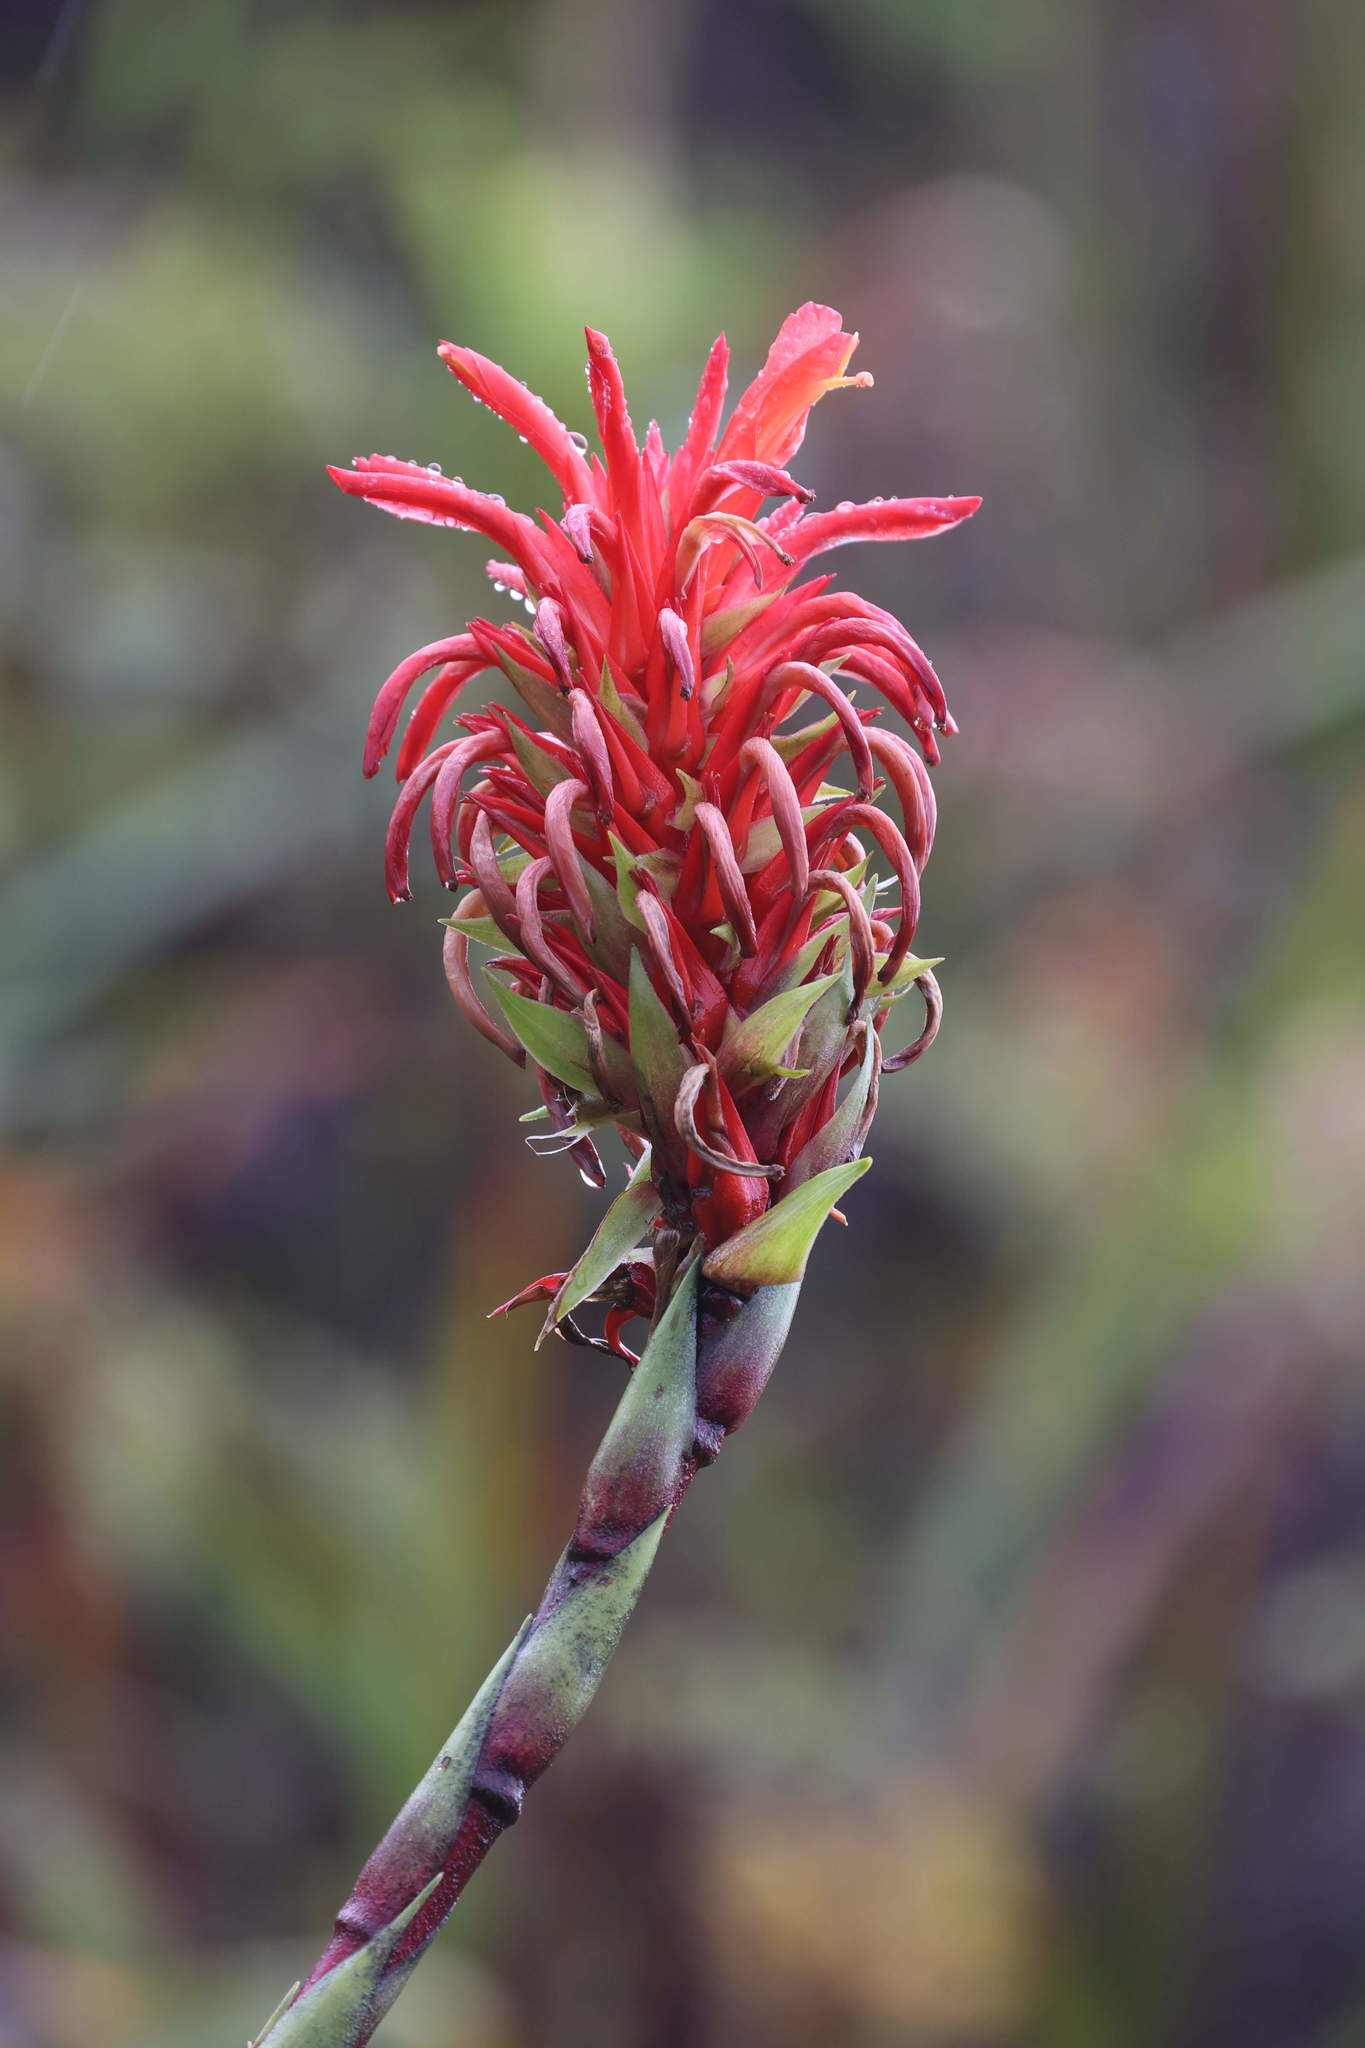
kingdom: Plantae
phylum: Tracheophyta
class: Liliopsida
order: Poales
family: Bromeliaceae
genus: Pitcairnia
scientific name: Pitcairnia bifrons
